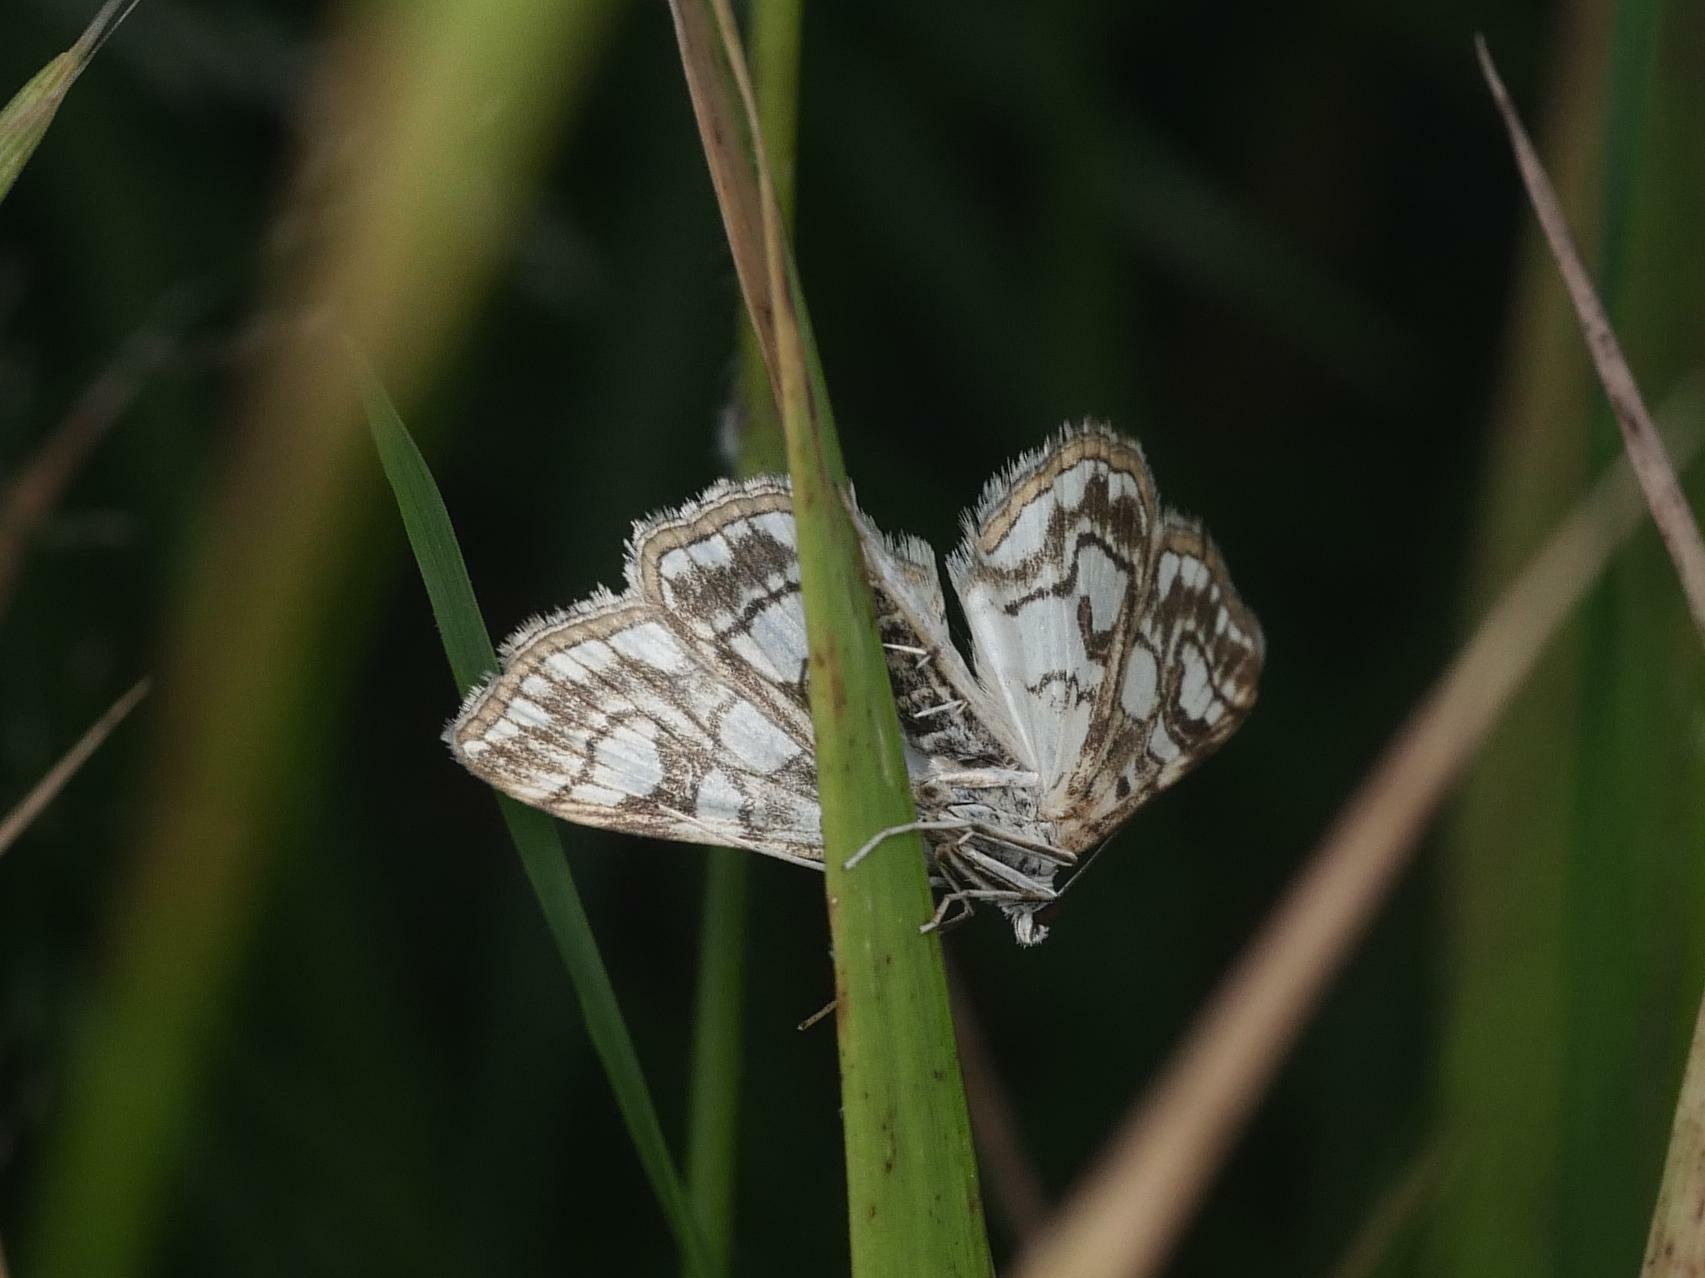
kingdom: Animalia
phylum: Arthropoda
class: Insecta
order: Lepidoptera
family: Crambidae
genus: Elophila
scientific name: Elophila nymphaeata
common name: Brown china-mark
